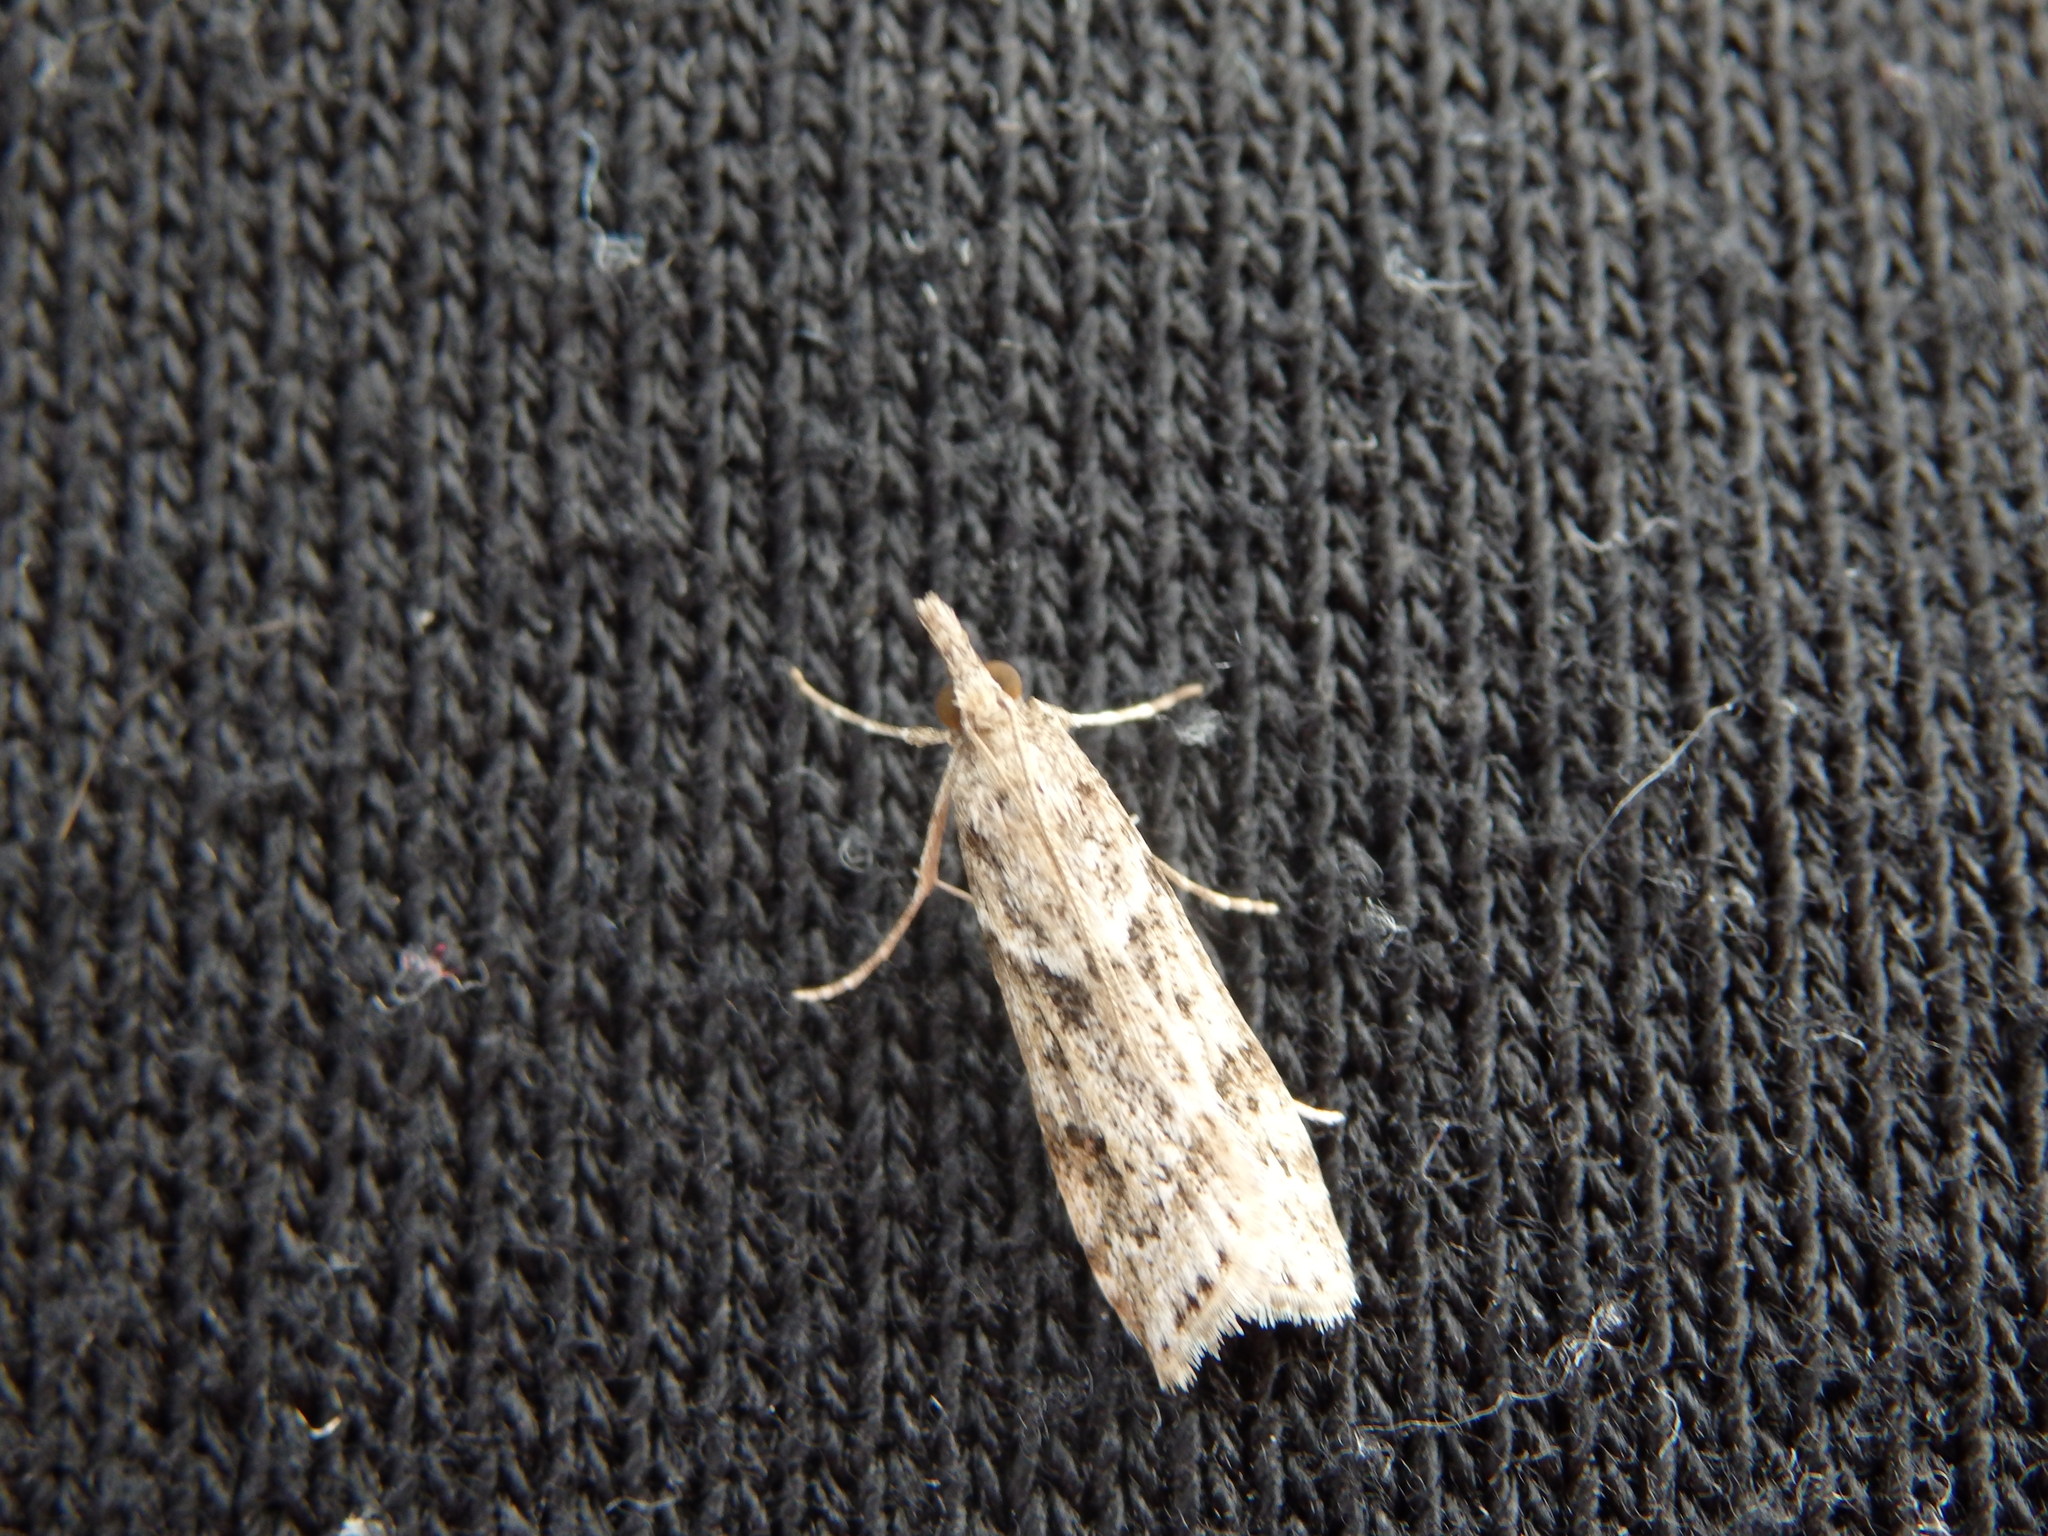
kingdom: Animalia
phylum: Arthropoda
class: Insecta
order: Lepidoptera
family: Crambidae
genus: Eudonia
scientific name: Eudonia angustea
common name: Narrow-winged grey
